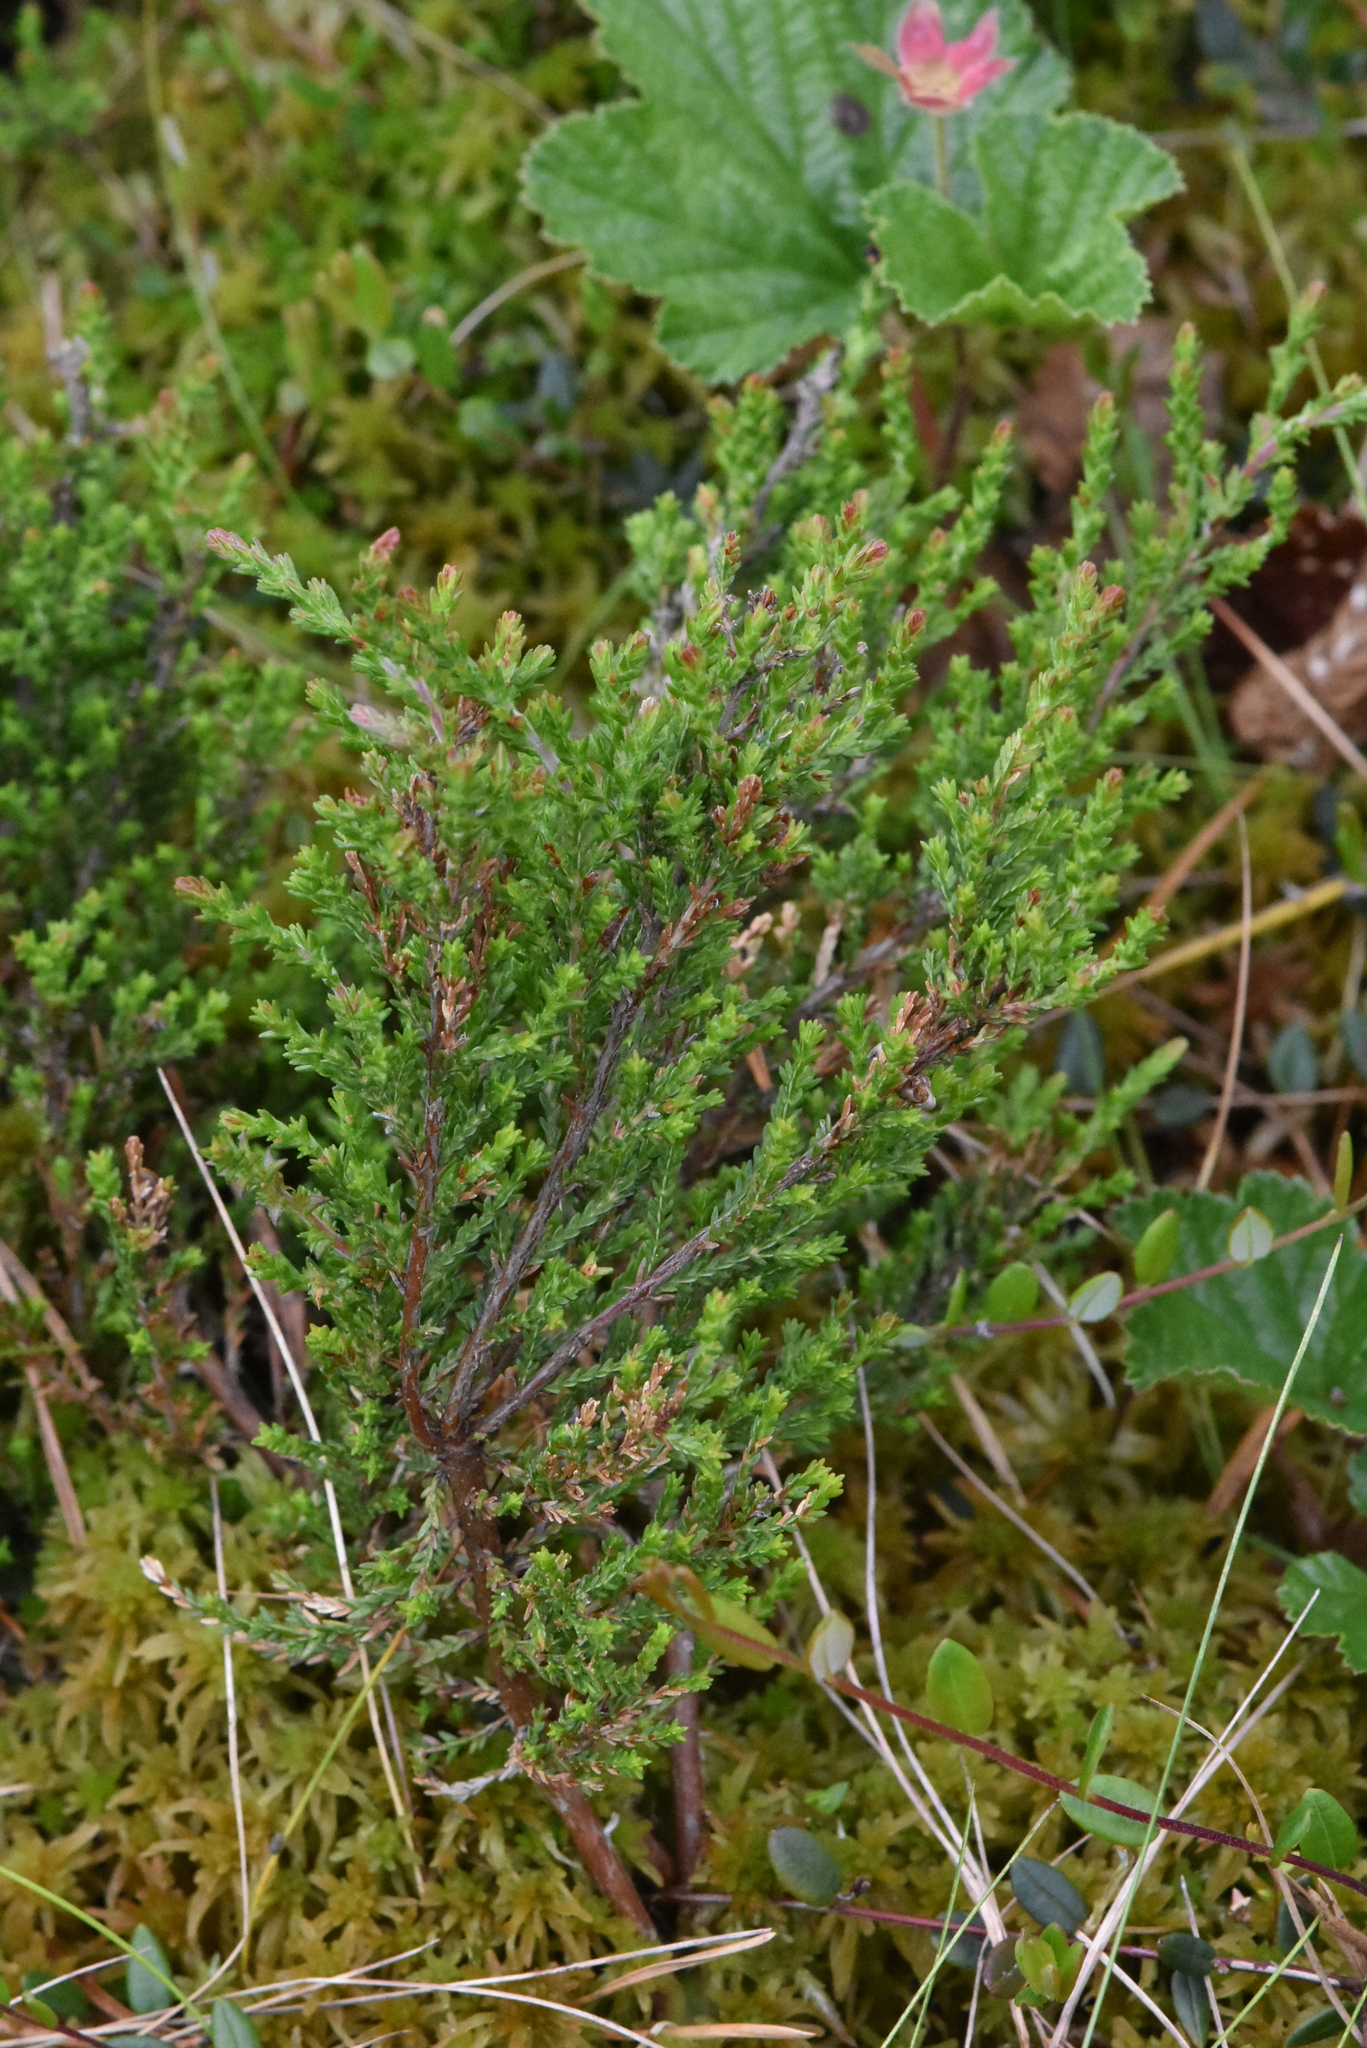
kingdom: Plantae
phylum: Tracheophyta
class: Magnoliopsida
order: Ericales
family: Ericaceae
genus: Calluna
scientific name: Calluna vulgaris
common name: Heather
